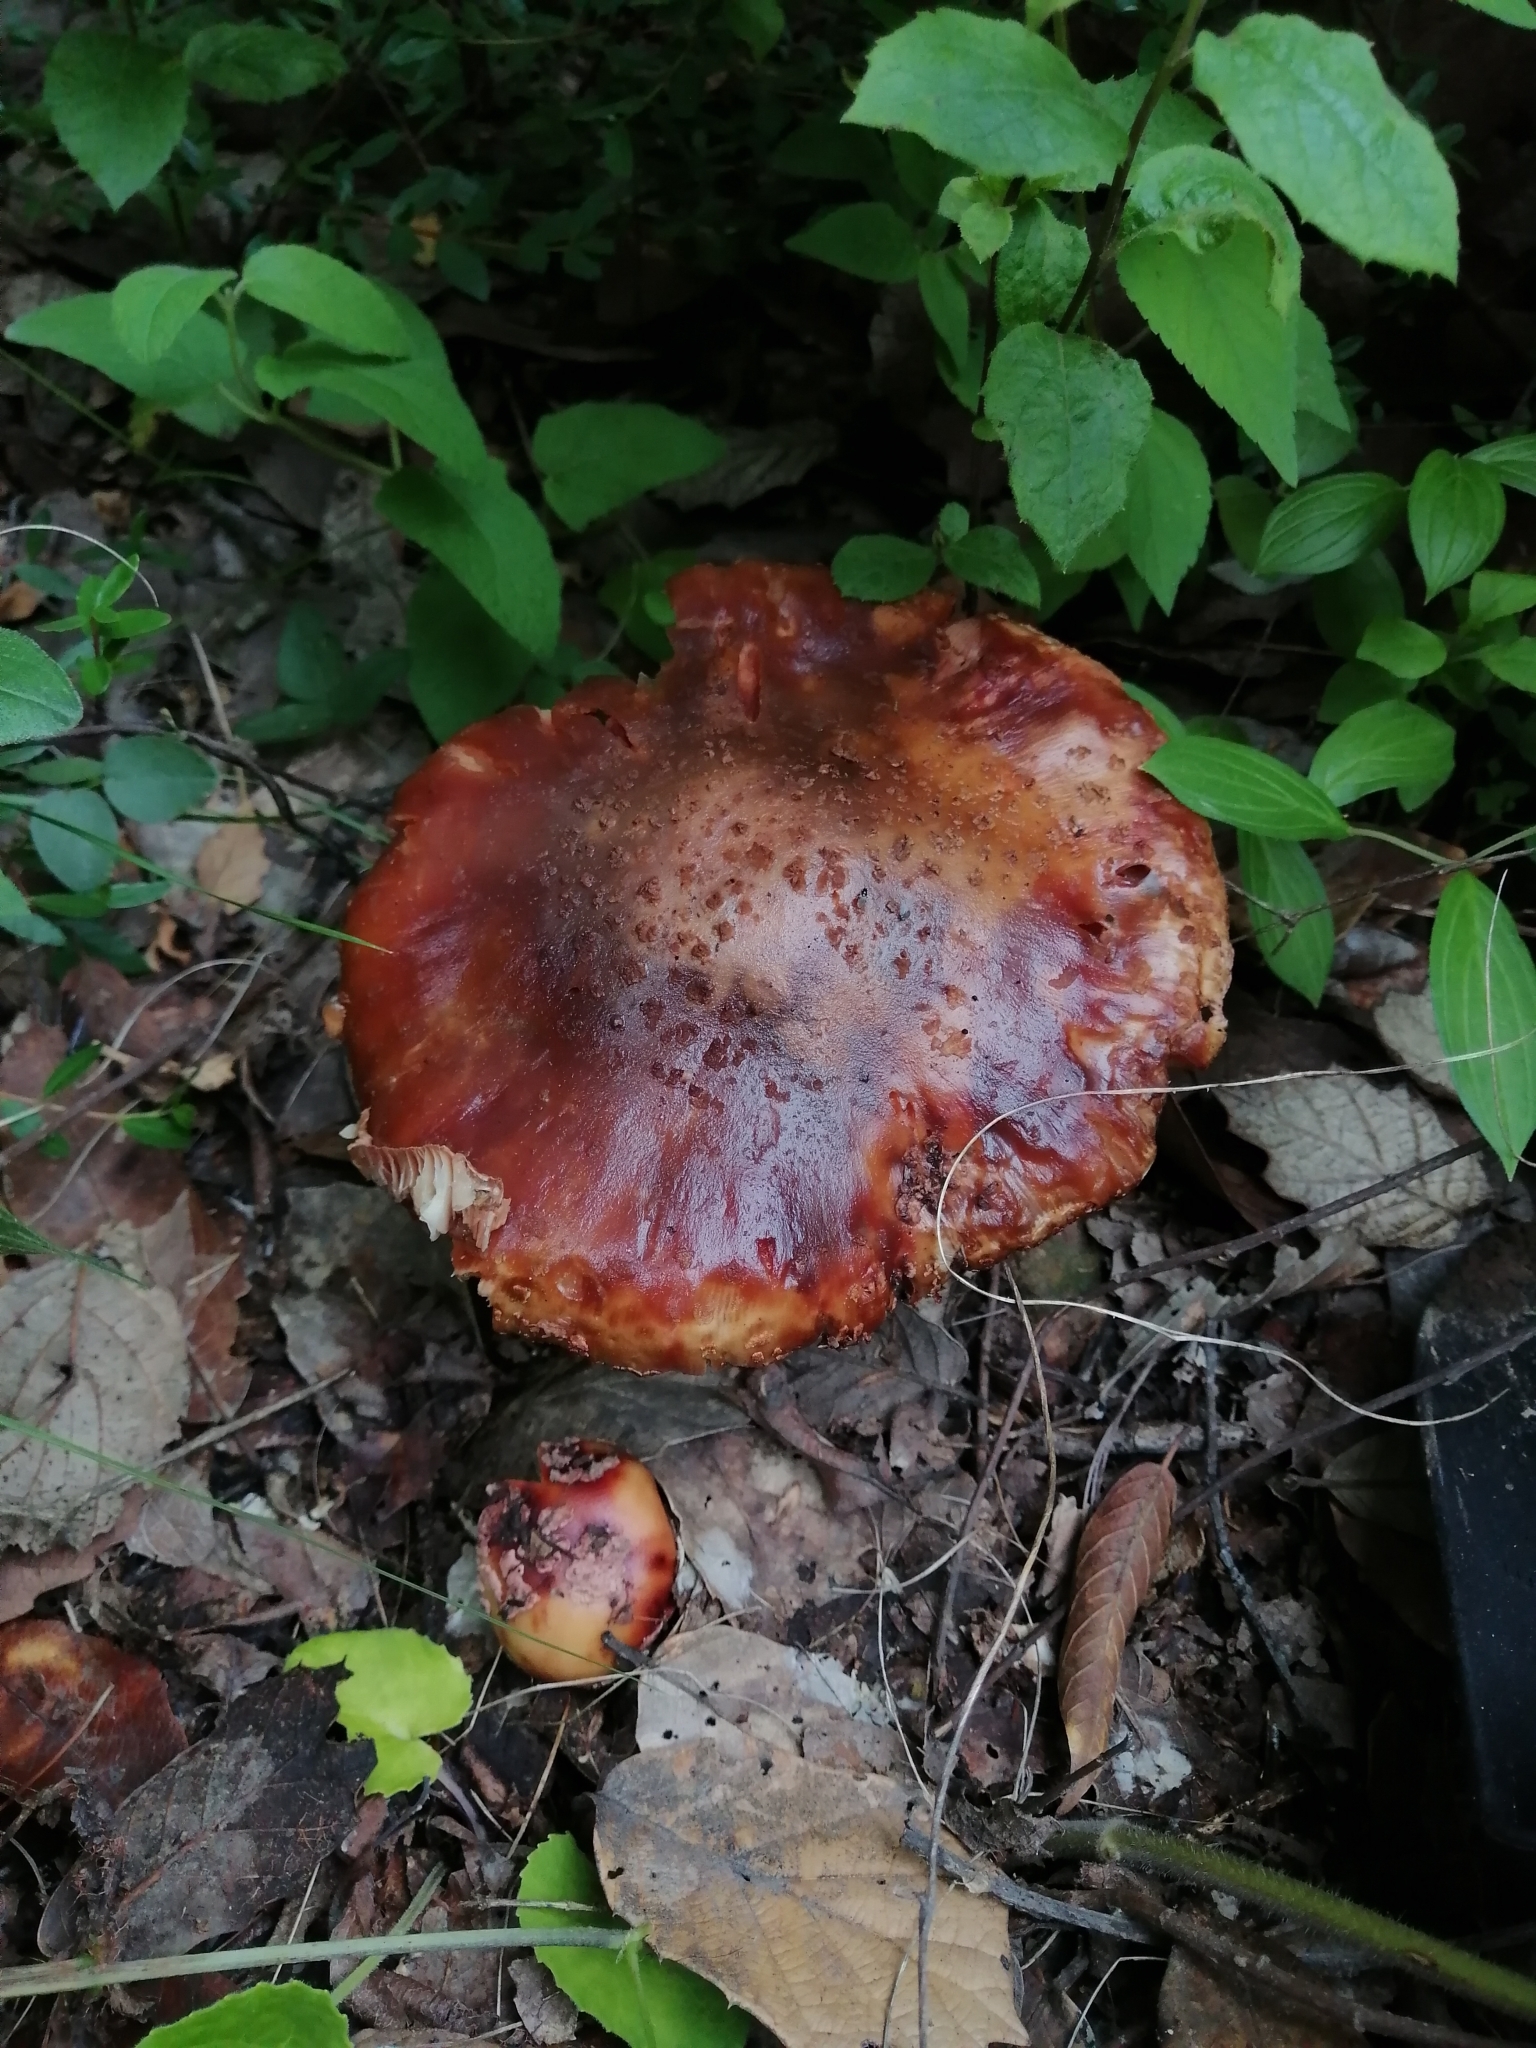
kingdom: Fungi
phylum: Basidiomycota
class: Agaricomycetes
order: Agaricales
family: Amanitaceae
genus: Amanita
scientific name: Amanita brunneolocularis
